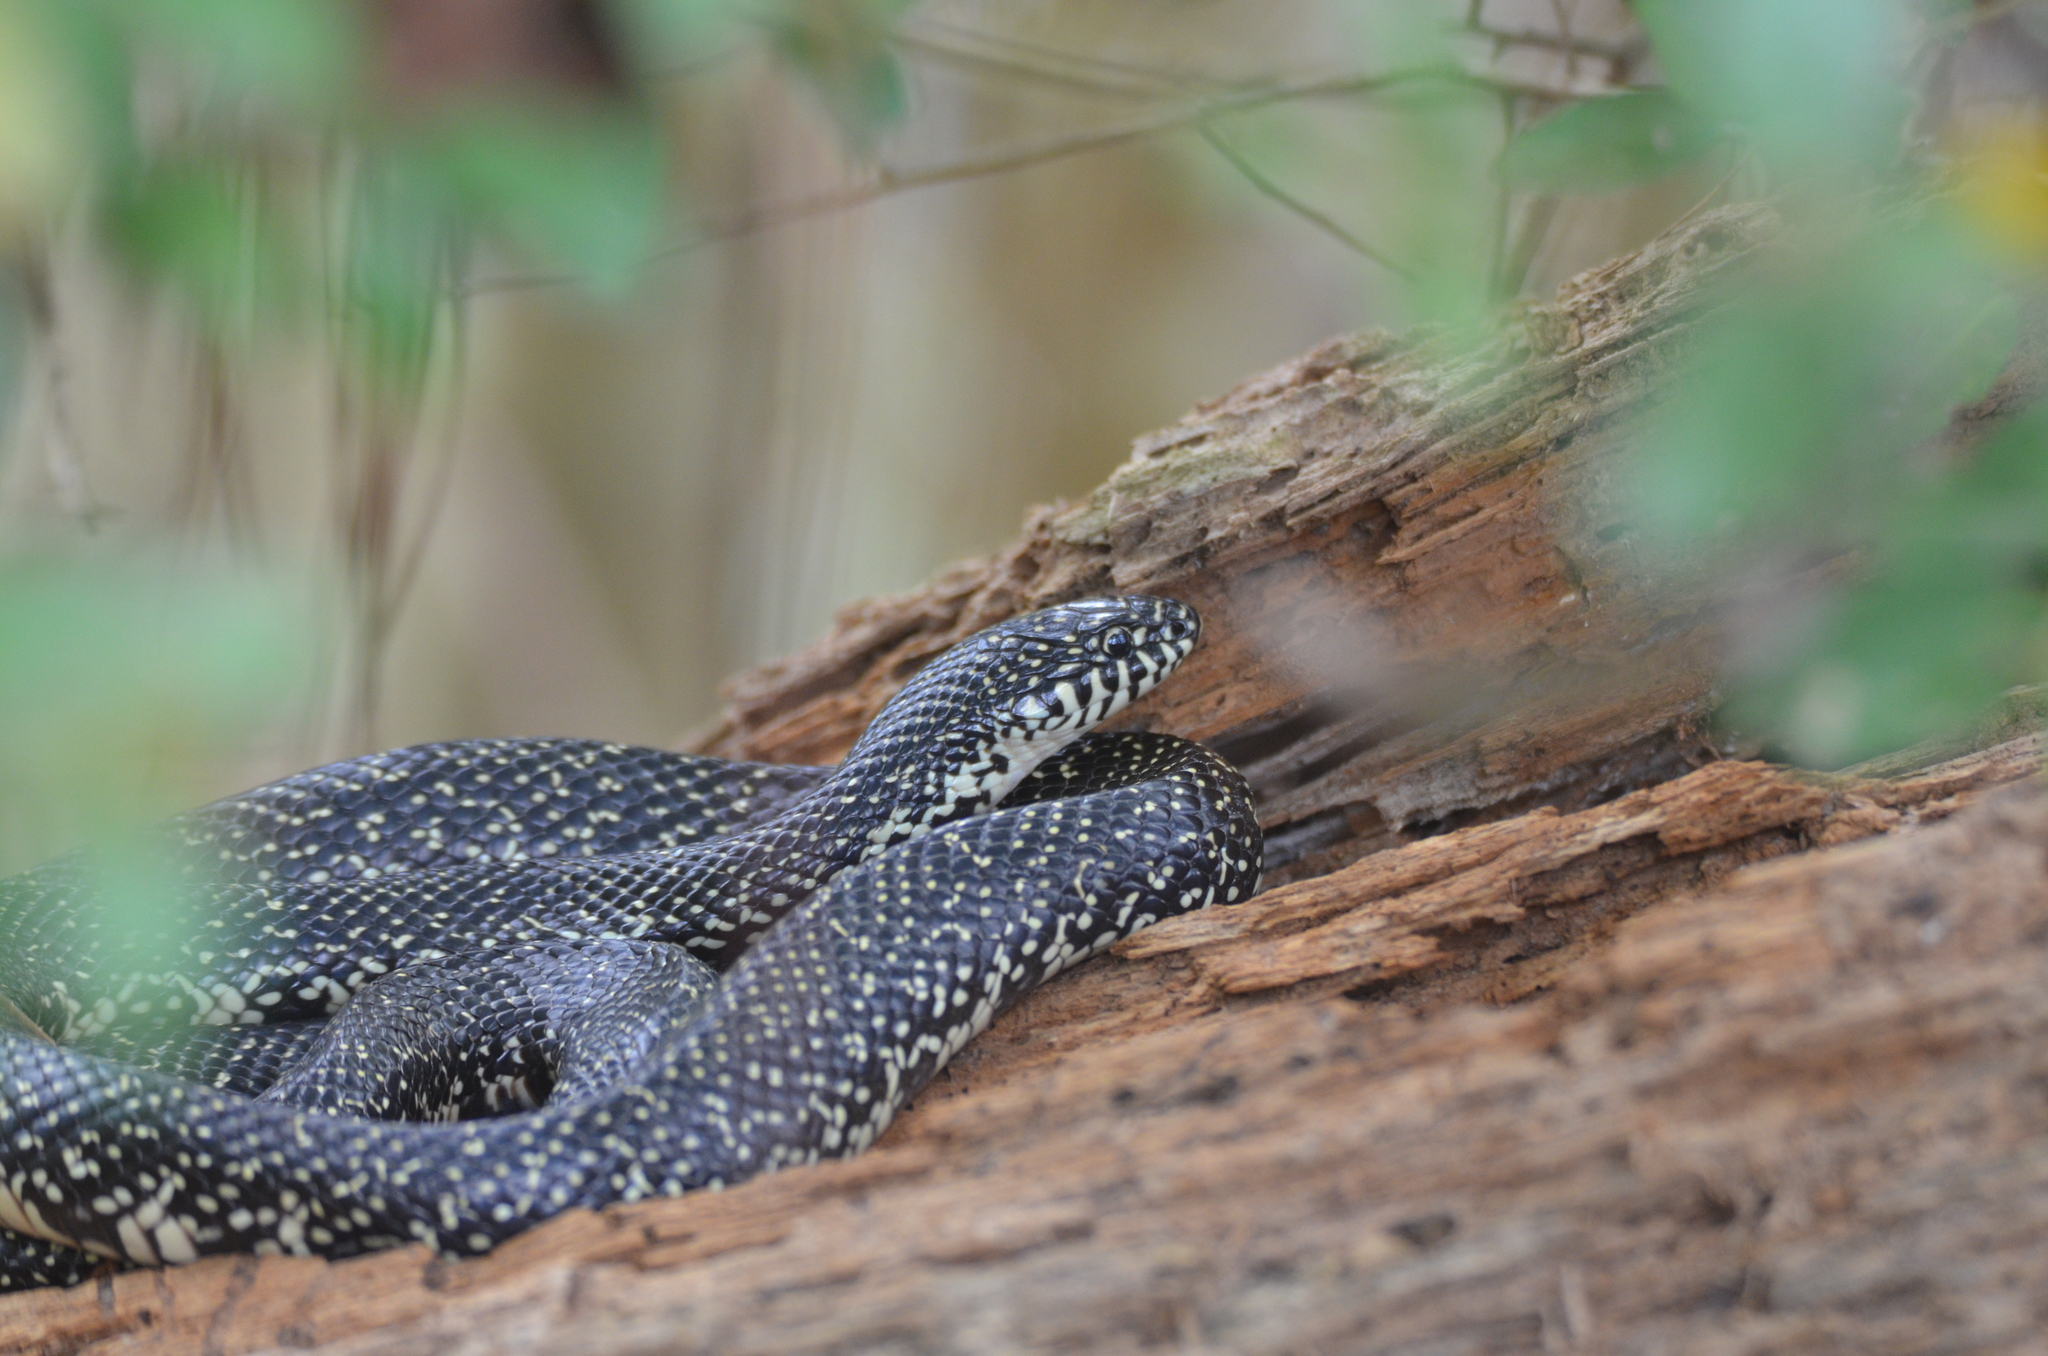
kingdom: Animalia
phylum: Chordata
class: Squamata
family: Colubridae
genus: Lampropeltis
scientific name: Lampropeltis holbrooki
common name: Speckled kingsnake
